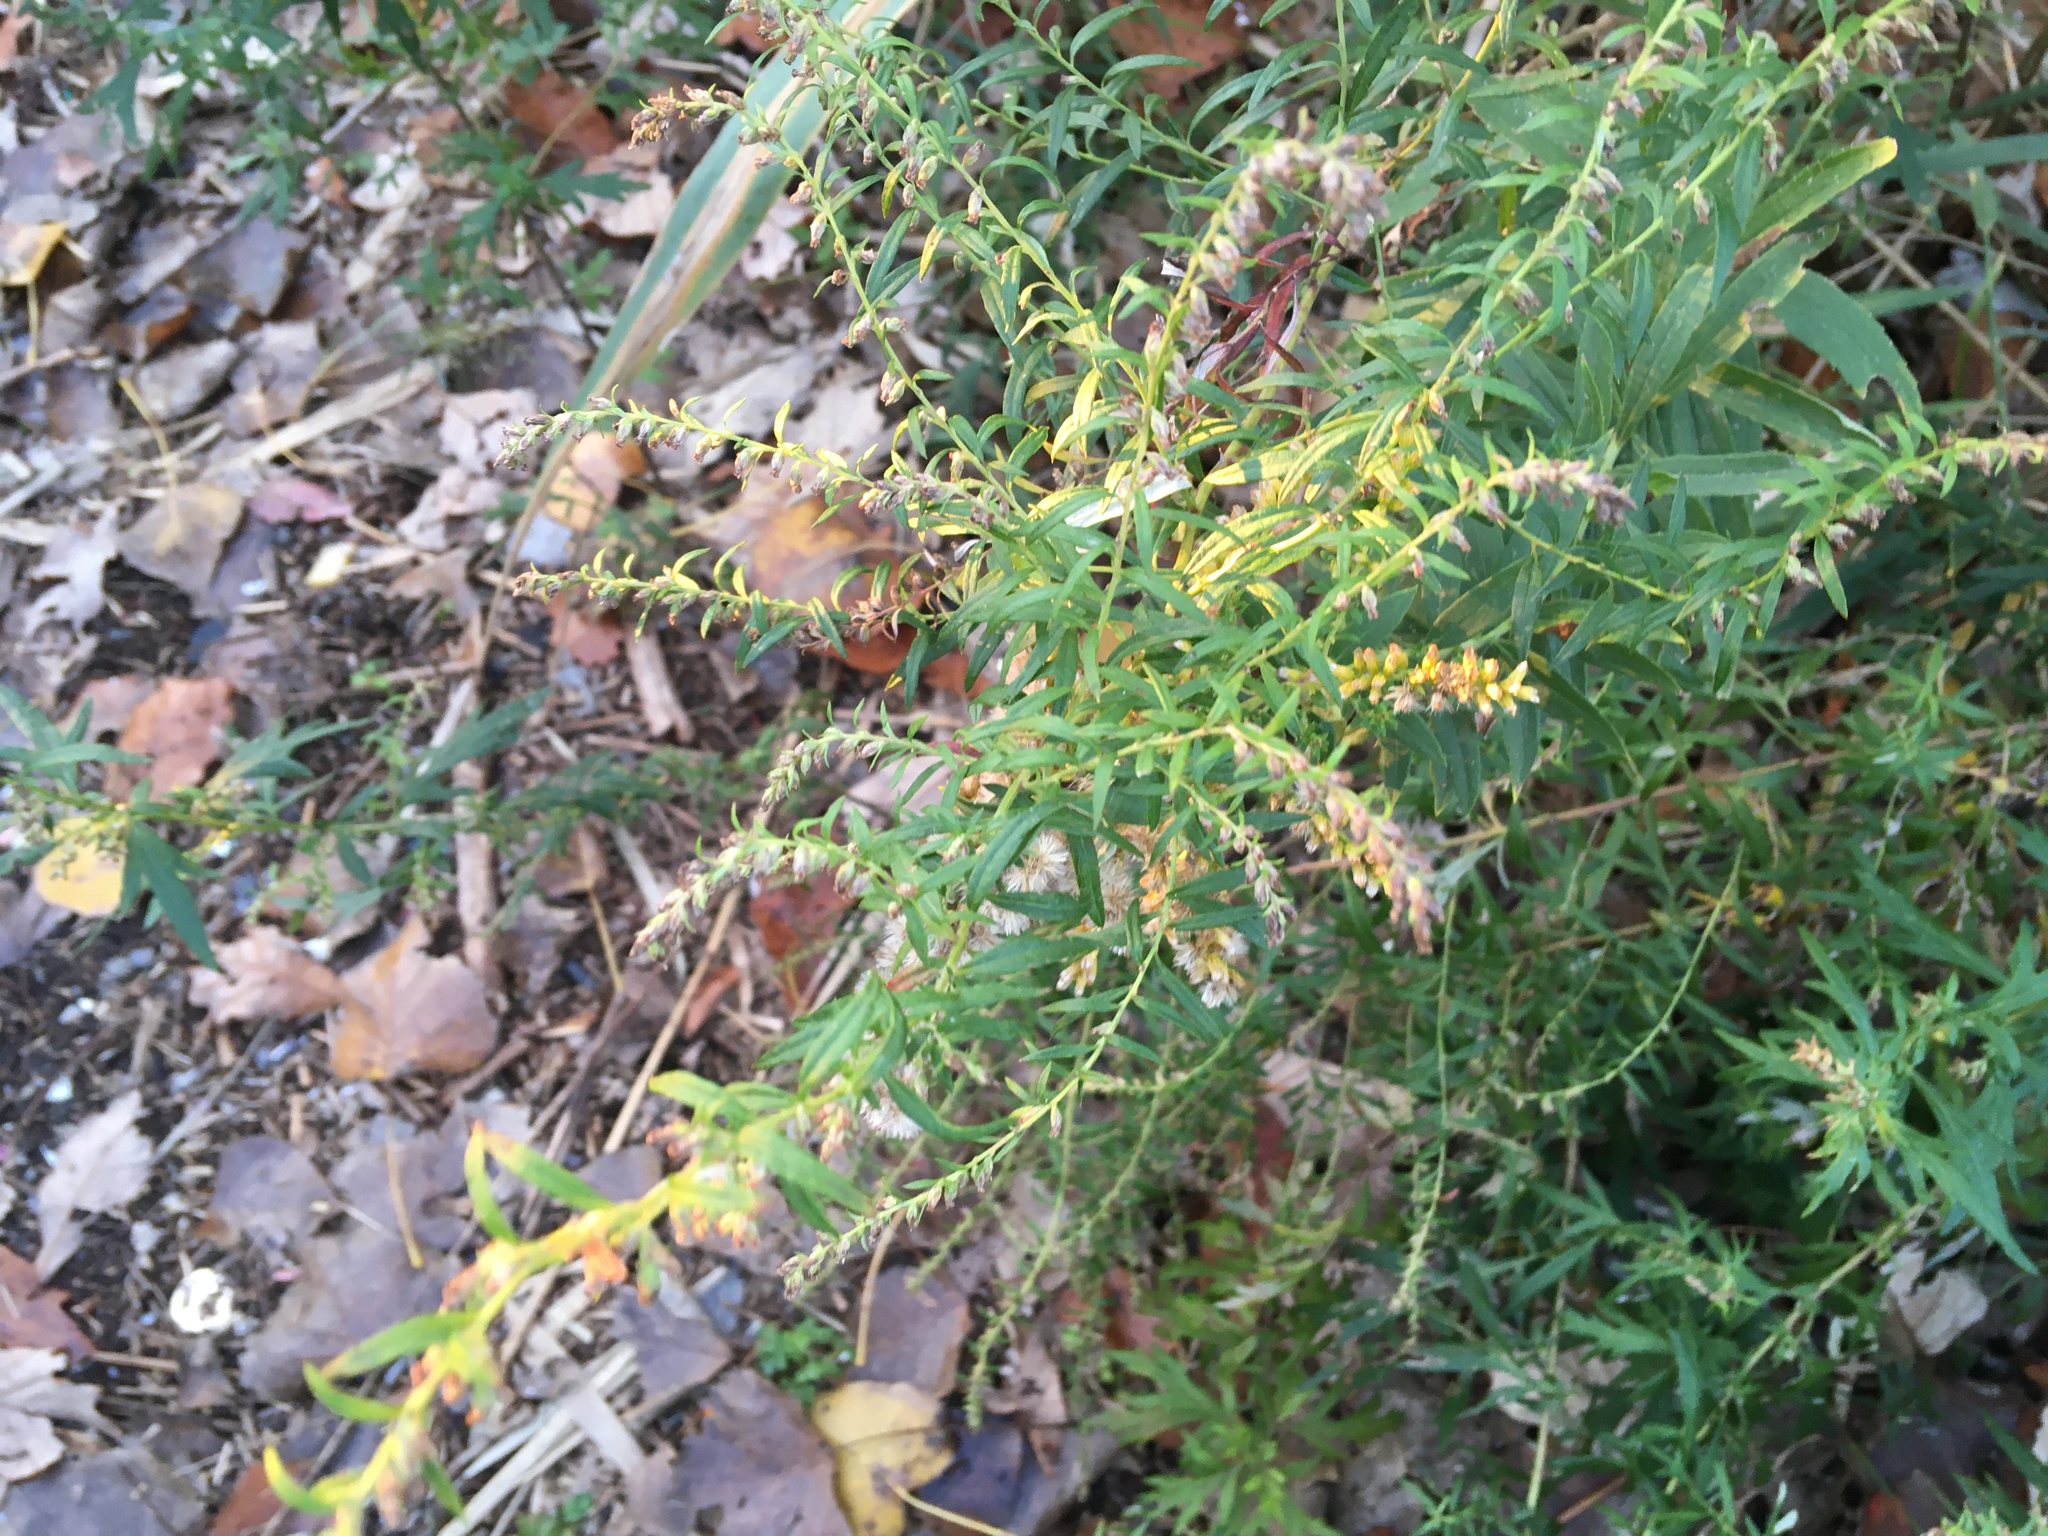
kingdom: Plantae
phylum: Tracheophyta
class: Magnoliopsida
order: Asterales
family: Asteraceae
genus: Artemisia
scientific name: Artemisia vulgaris
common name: Mugwort
